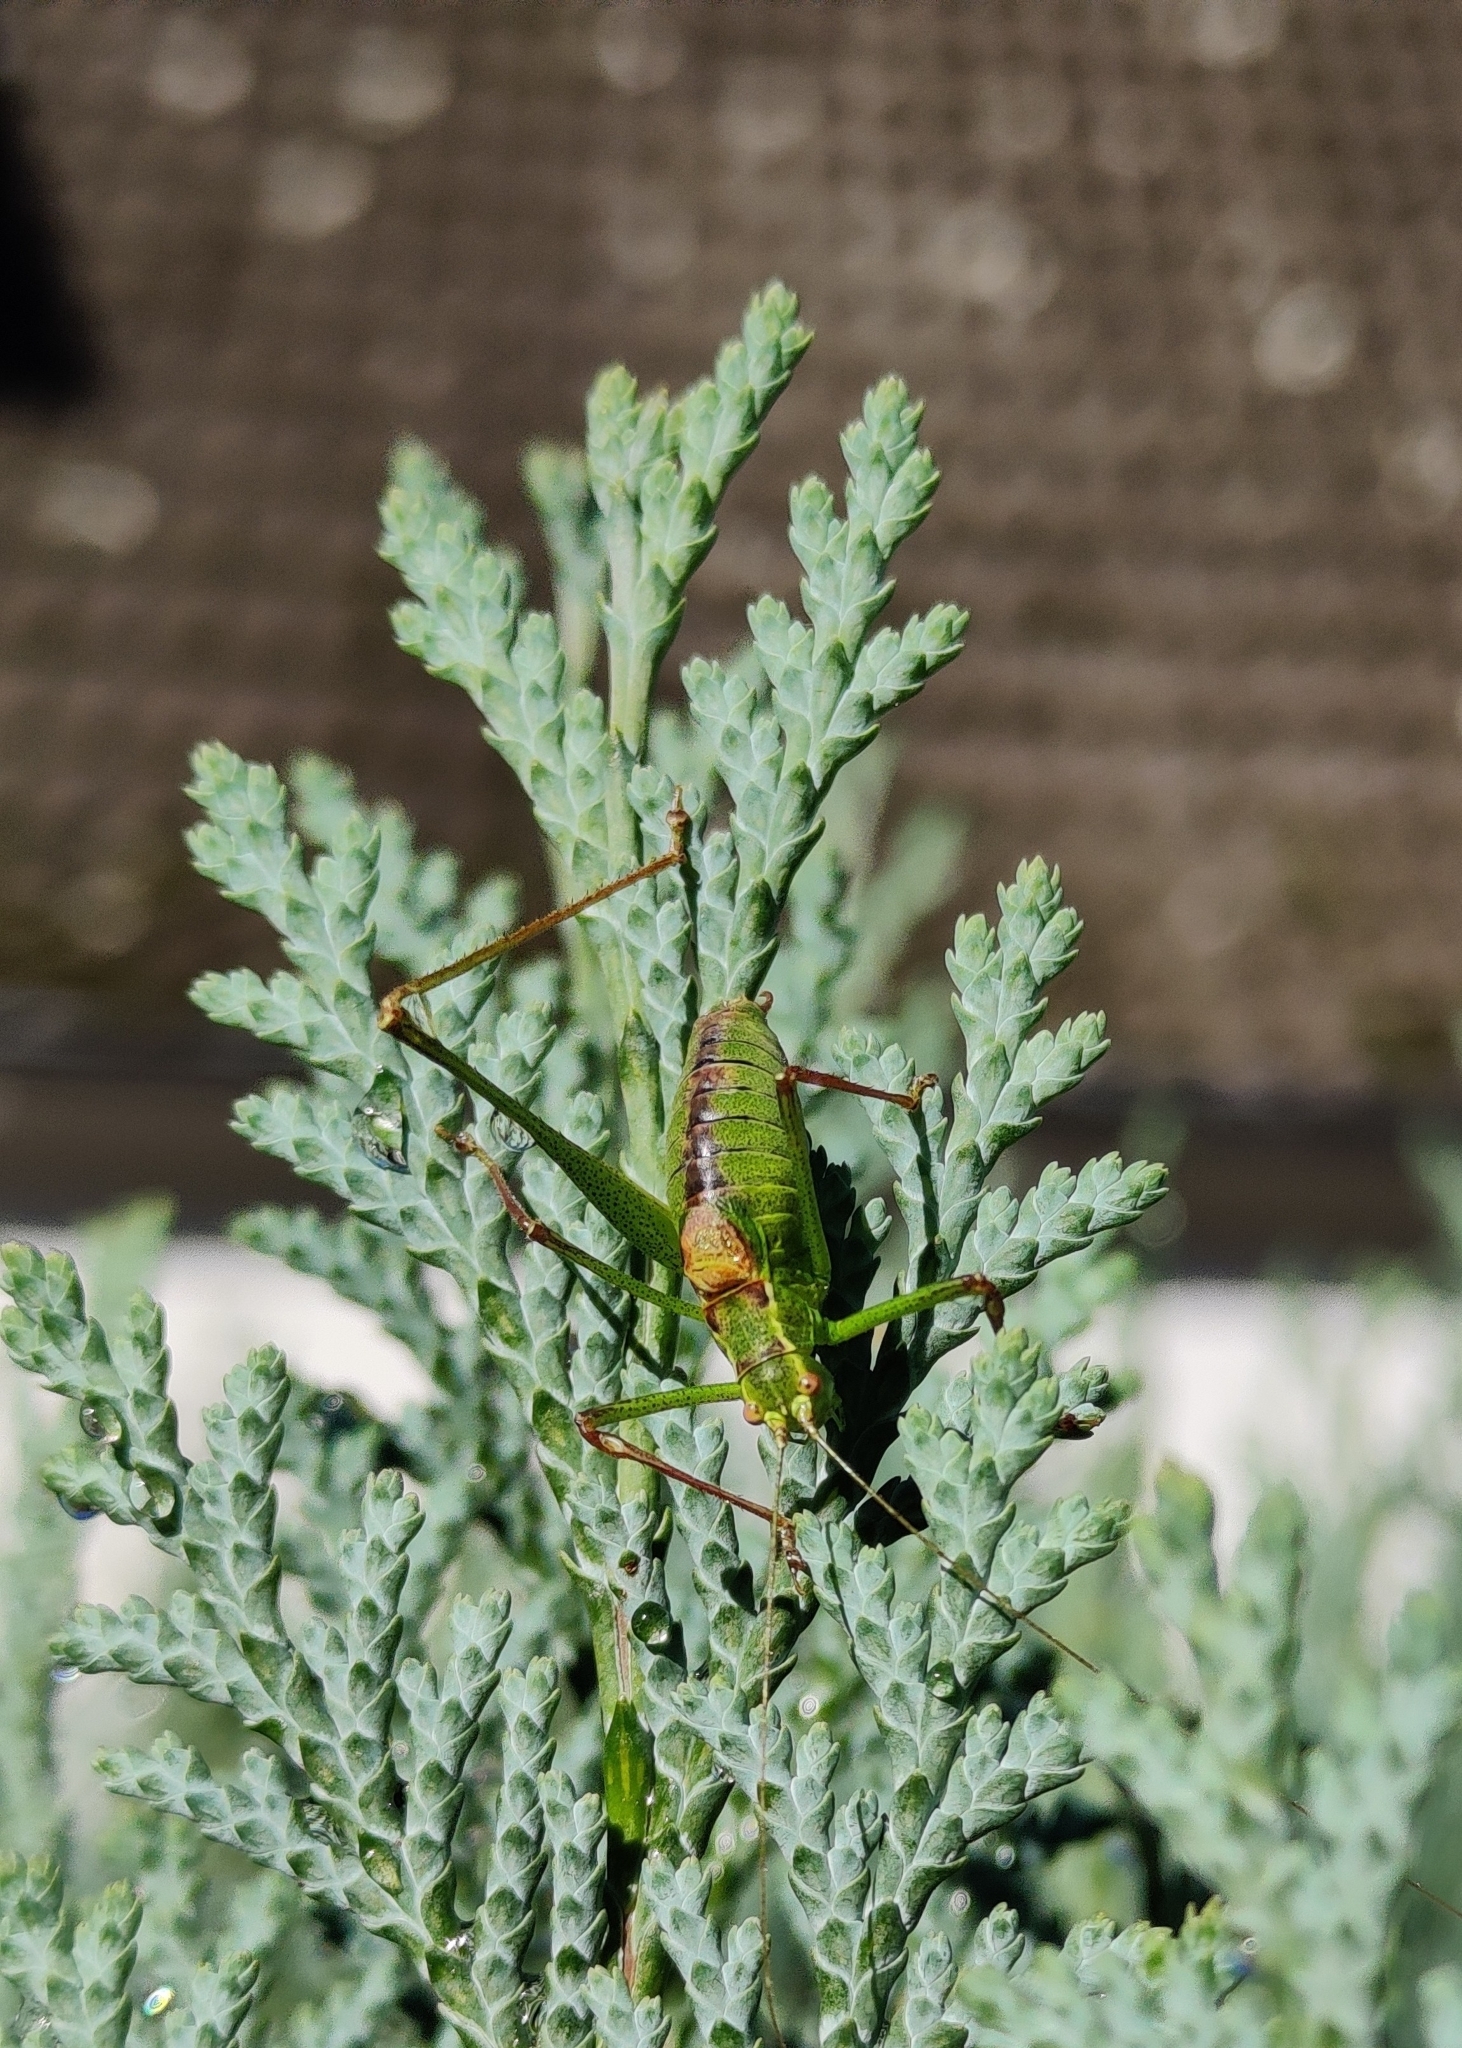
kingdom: Animalia
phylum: Arthropoda
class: Insecta
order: Orthoptera
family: Tettigoniidae
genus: Leptophyes
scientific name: Leptophyes punctatissima
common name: Speckled bush-cricket
